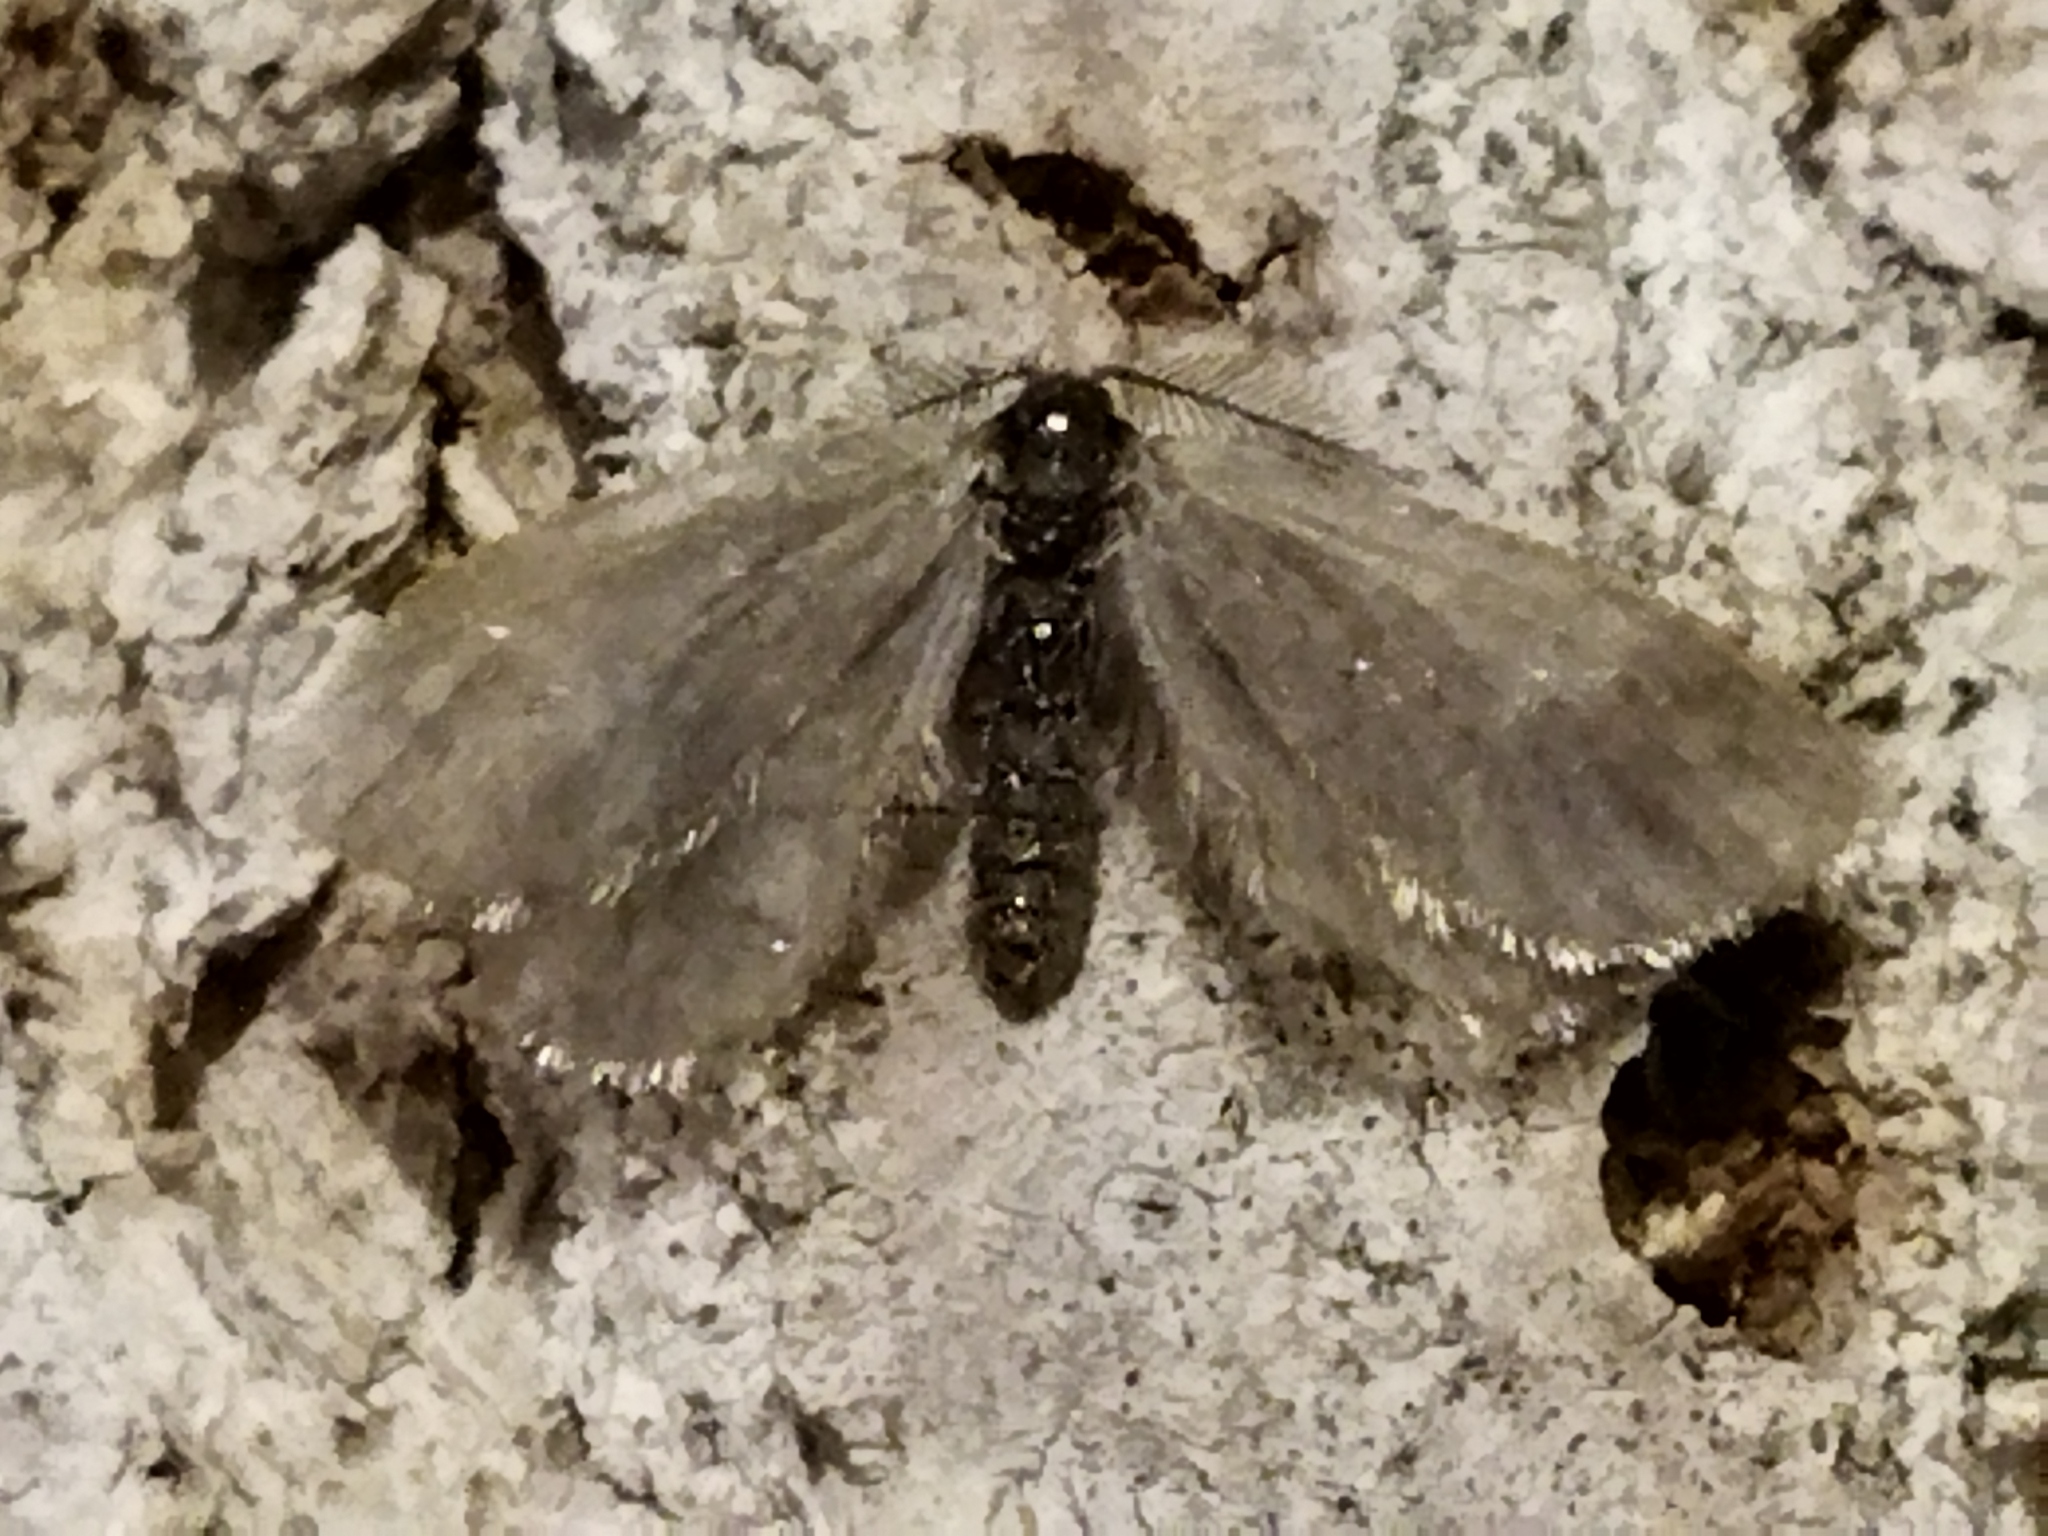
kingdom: Animalia
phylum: Arthropoda
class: Insecta
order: Lepidoptera
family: Psychidae
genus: Rebelia
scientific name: Rebelia perlucidella
